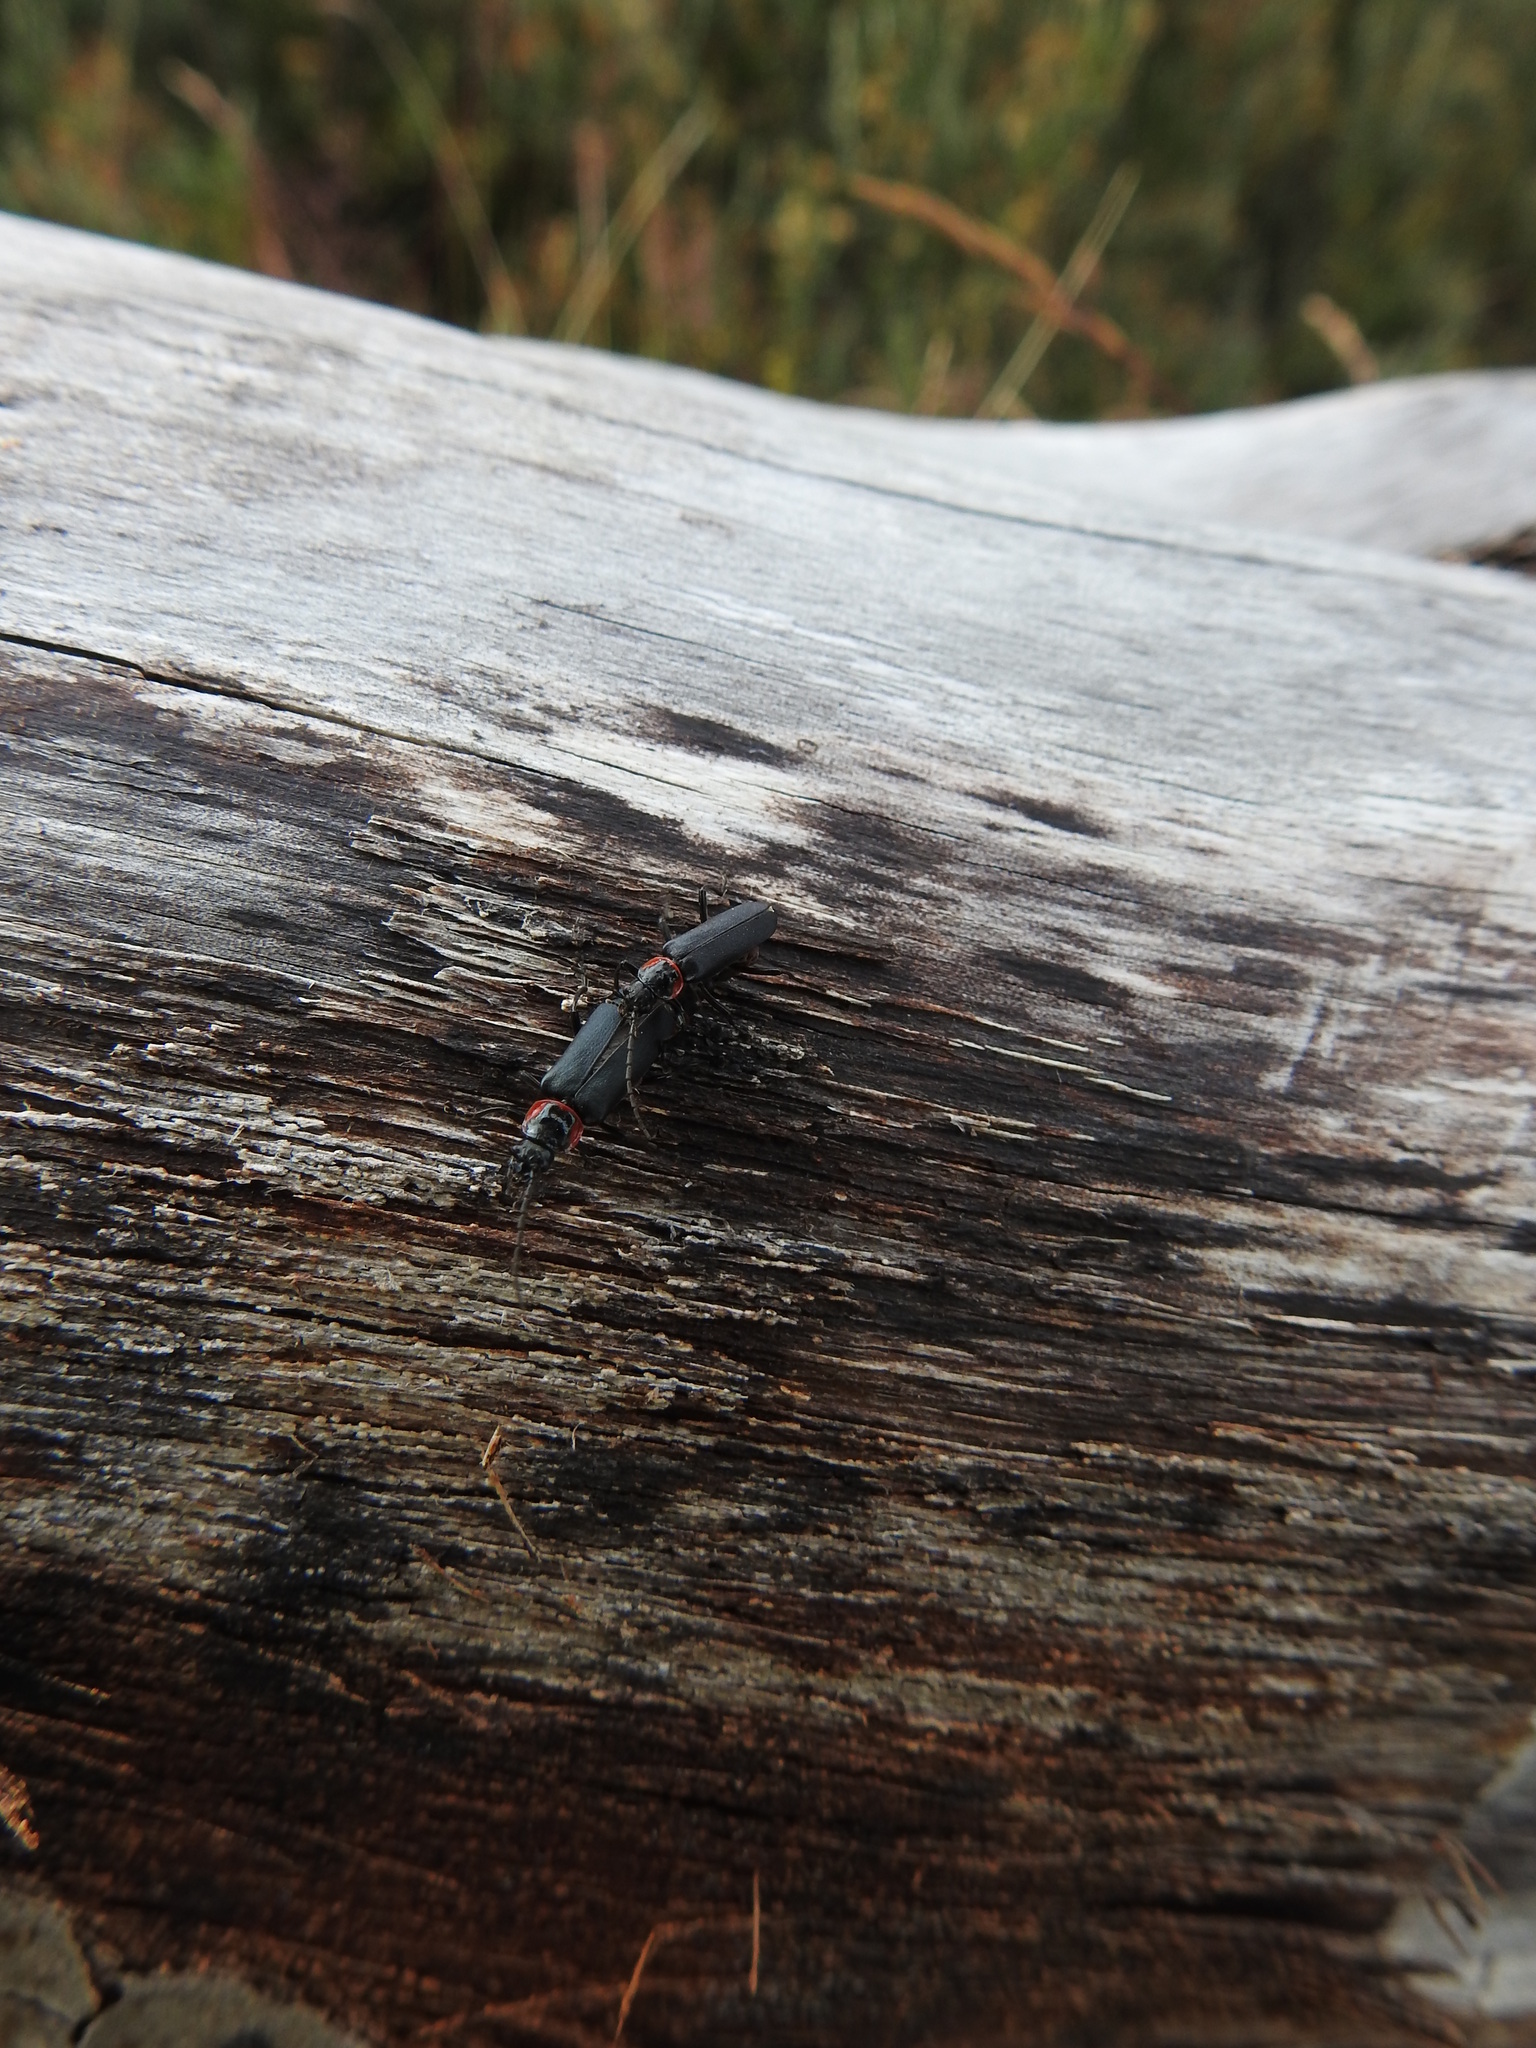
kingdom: Animalia
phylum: Arthropoda
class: Insecta
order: Coleoptera
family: Cantharidae
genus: Chauliognathus
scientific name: Chauliognathus
